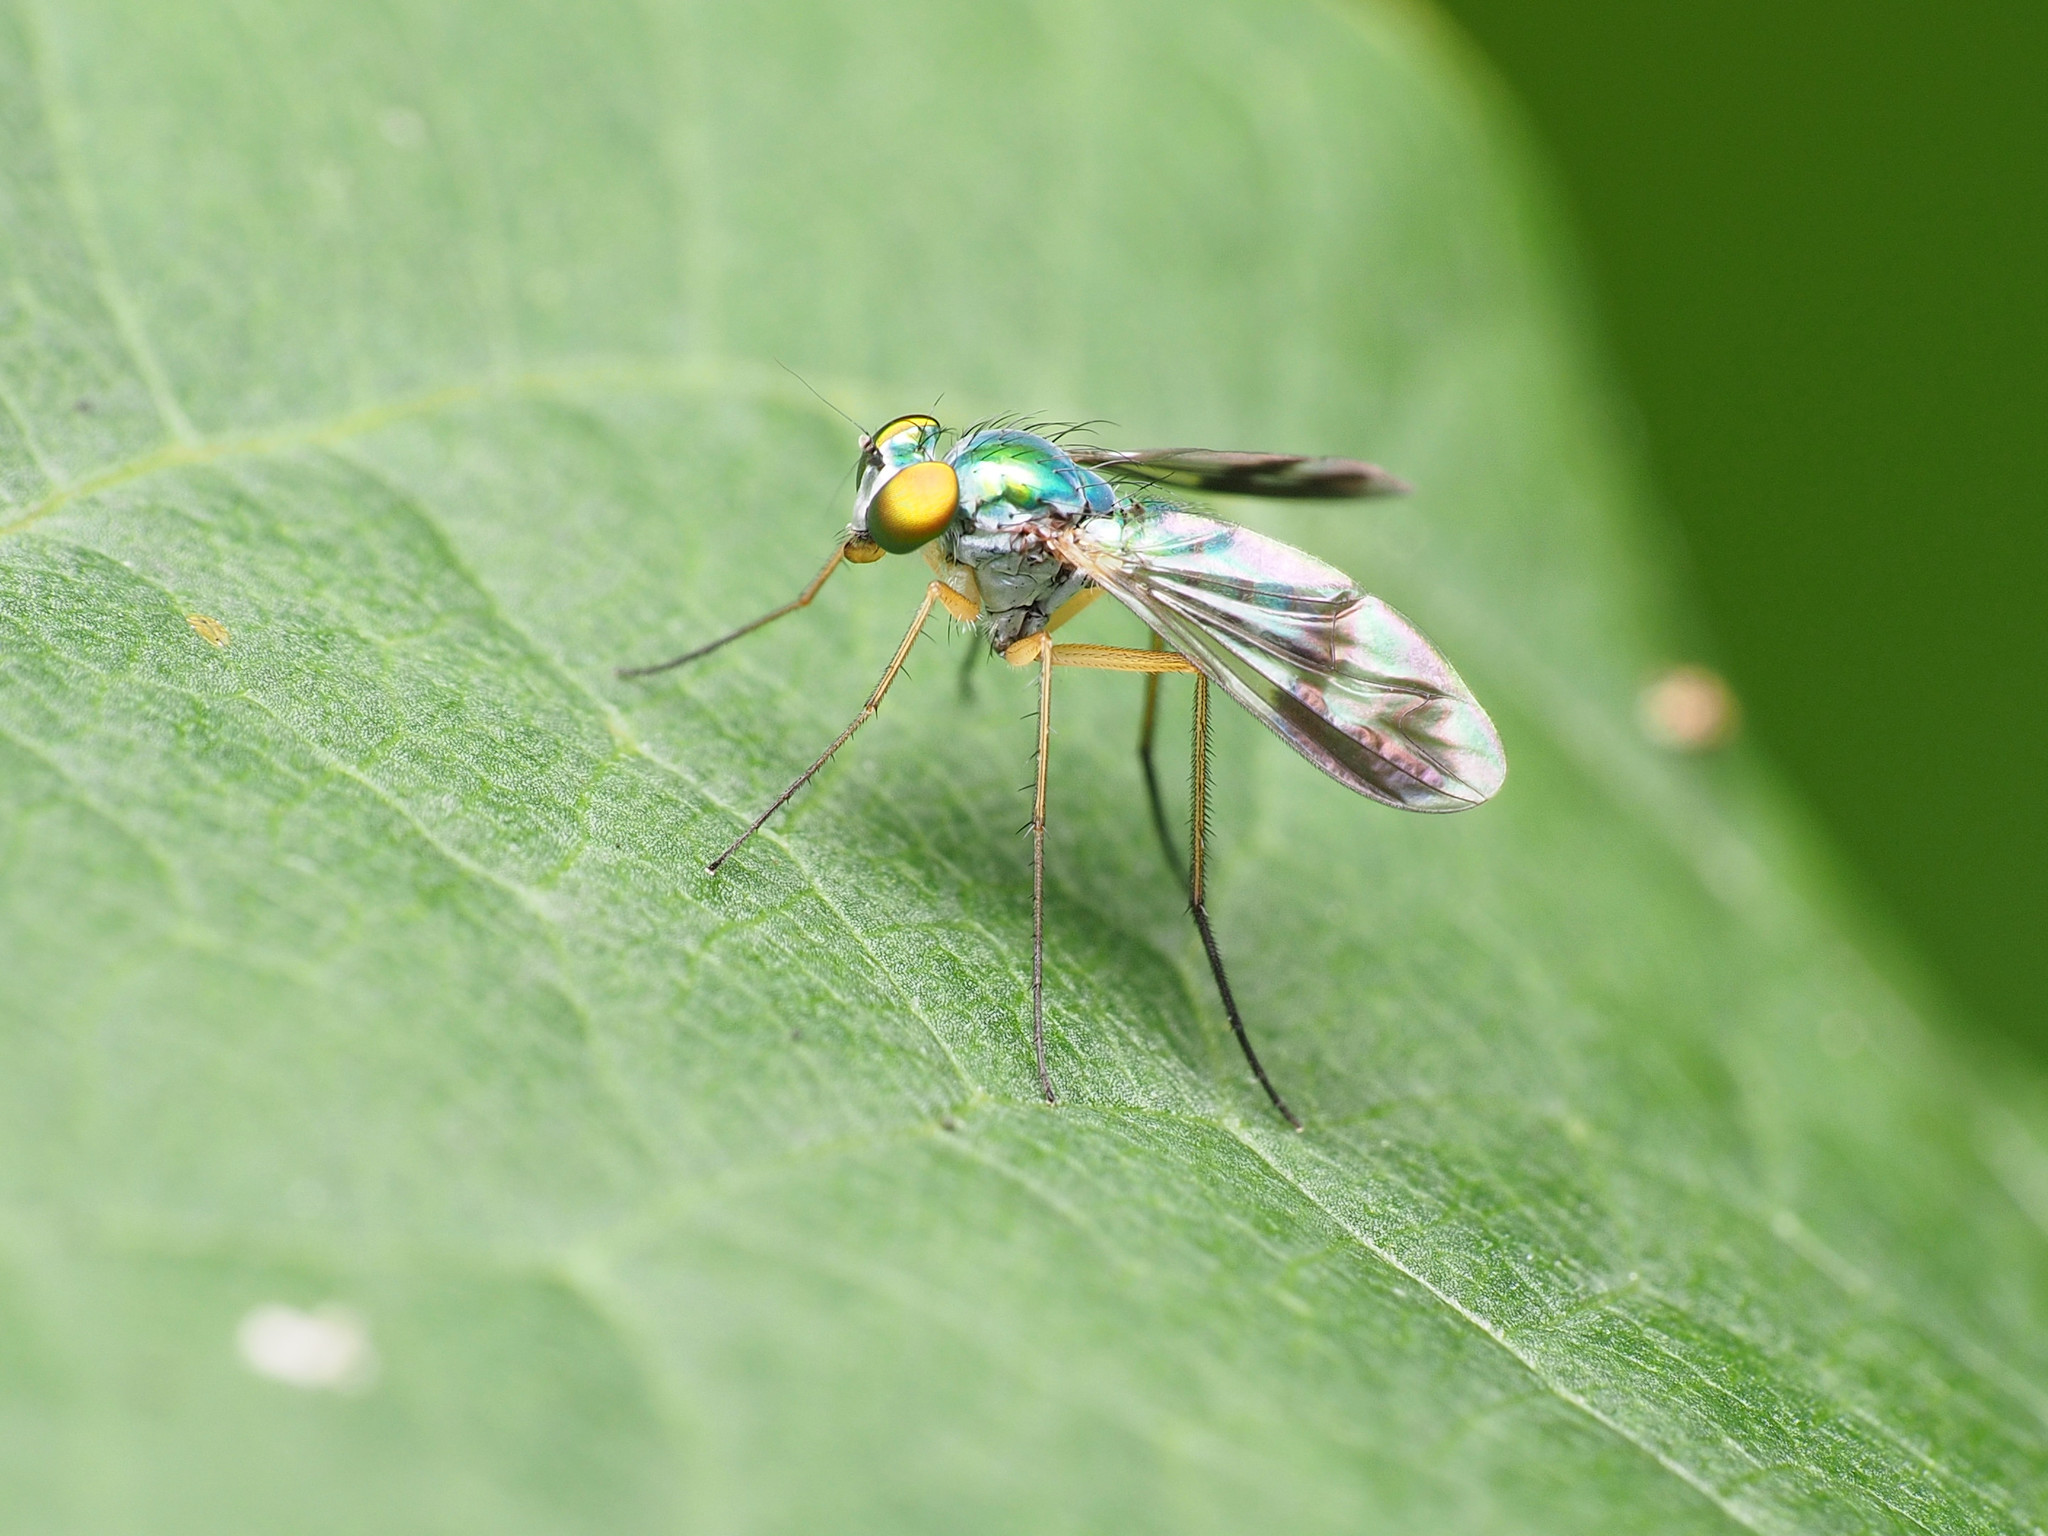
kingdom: Animalia
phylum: Arthropoda
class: Insecta
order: Diptera
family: Dolichopodidae
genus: Condylostylus
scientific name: Condylostylus
